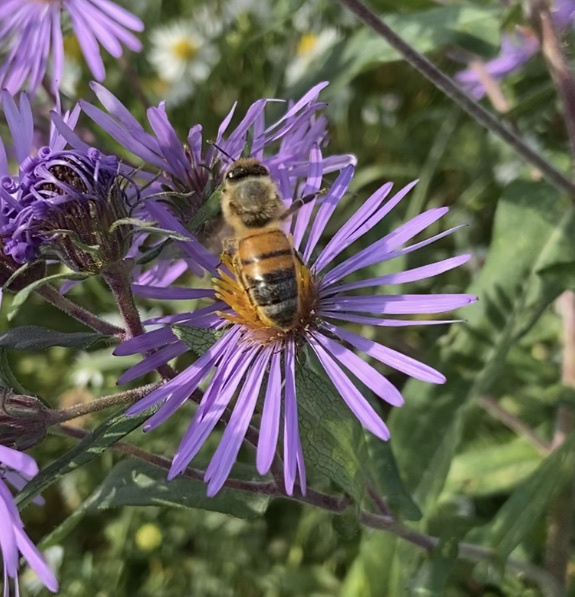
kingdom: Animalia
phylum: Arthropoda
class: Insecta
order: Hymenoptera
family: Apidae
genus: Apis
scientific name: Apis mellifera
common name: Honey bee
